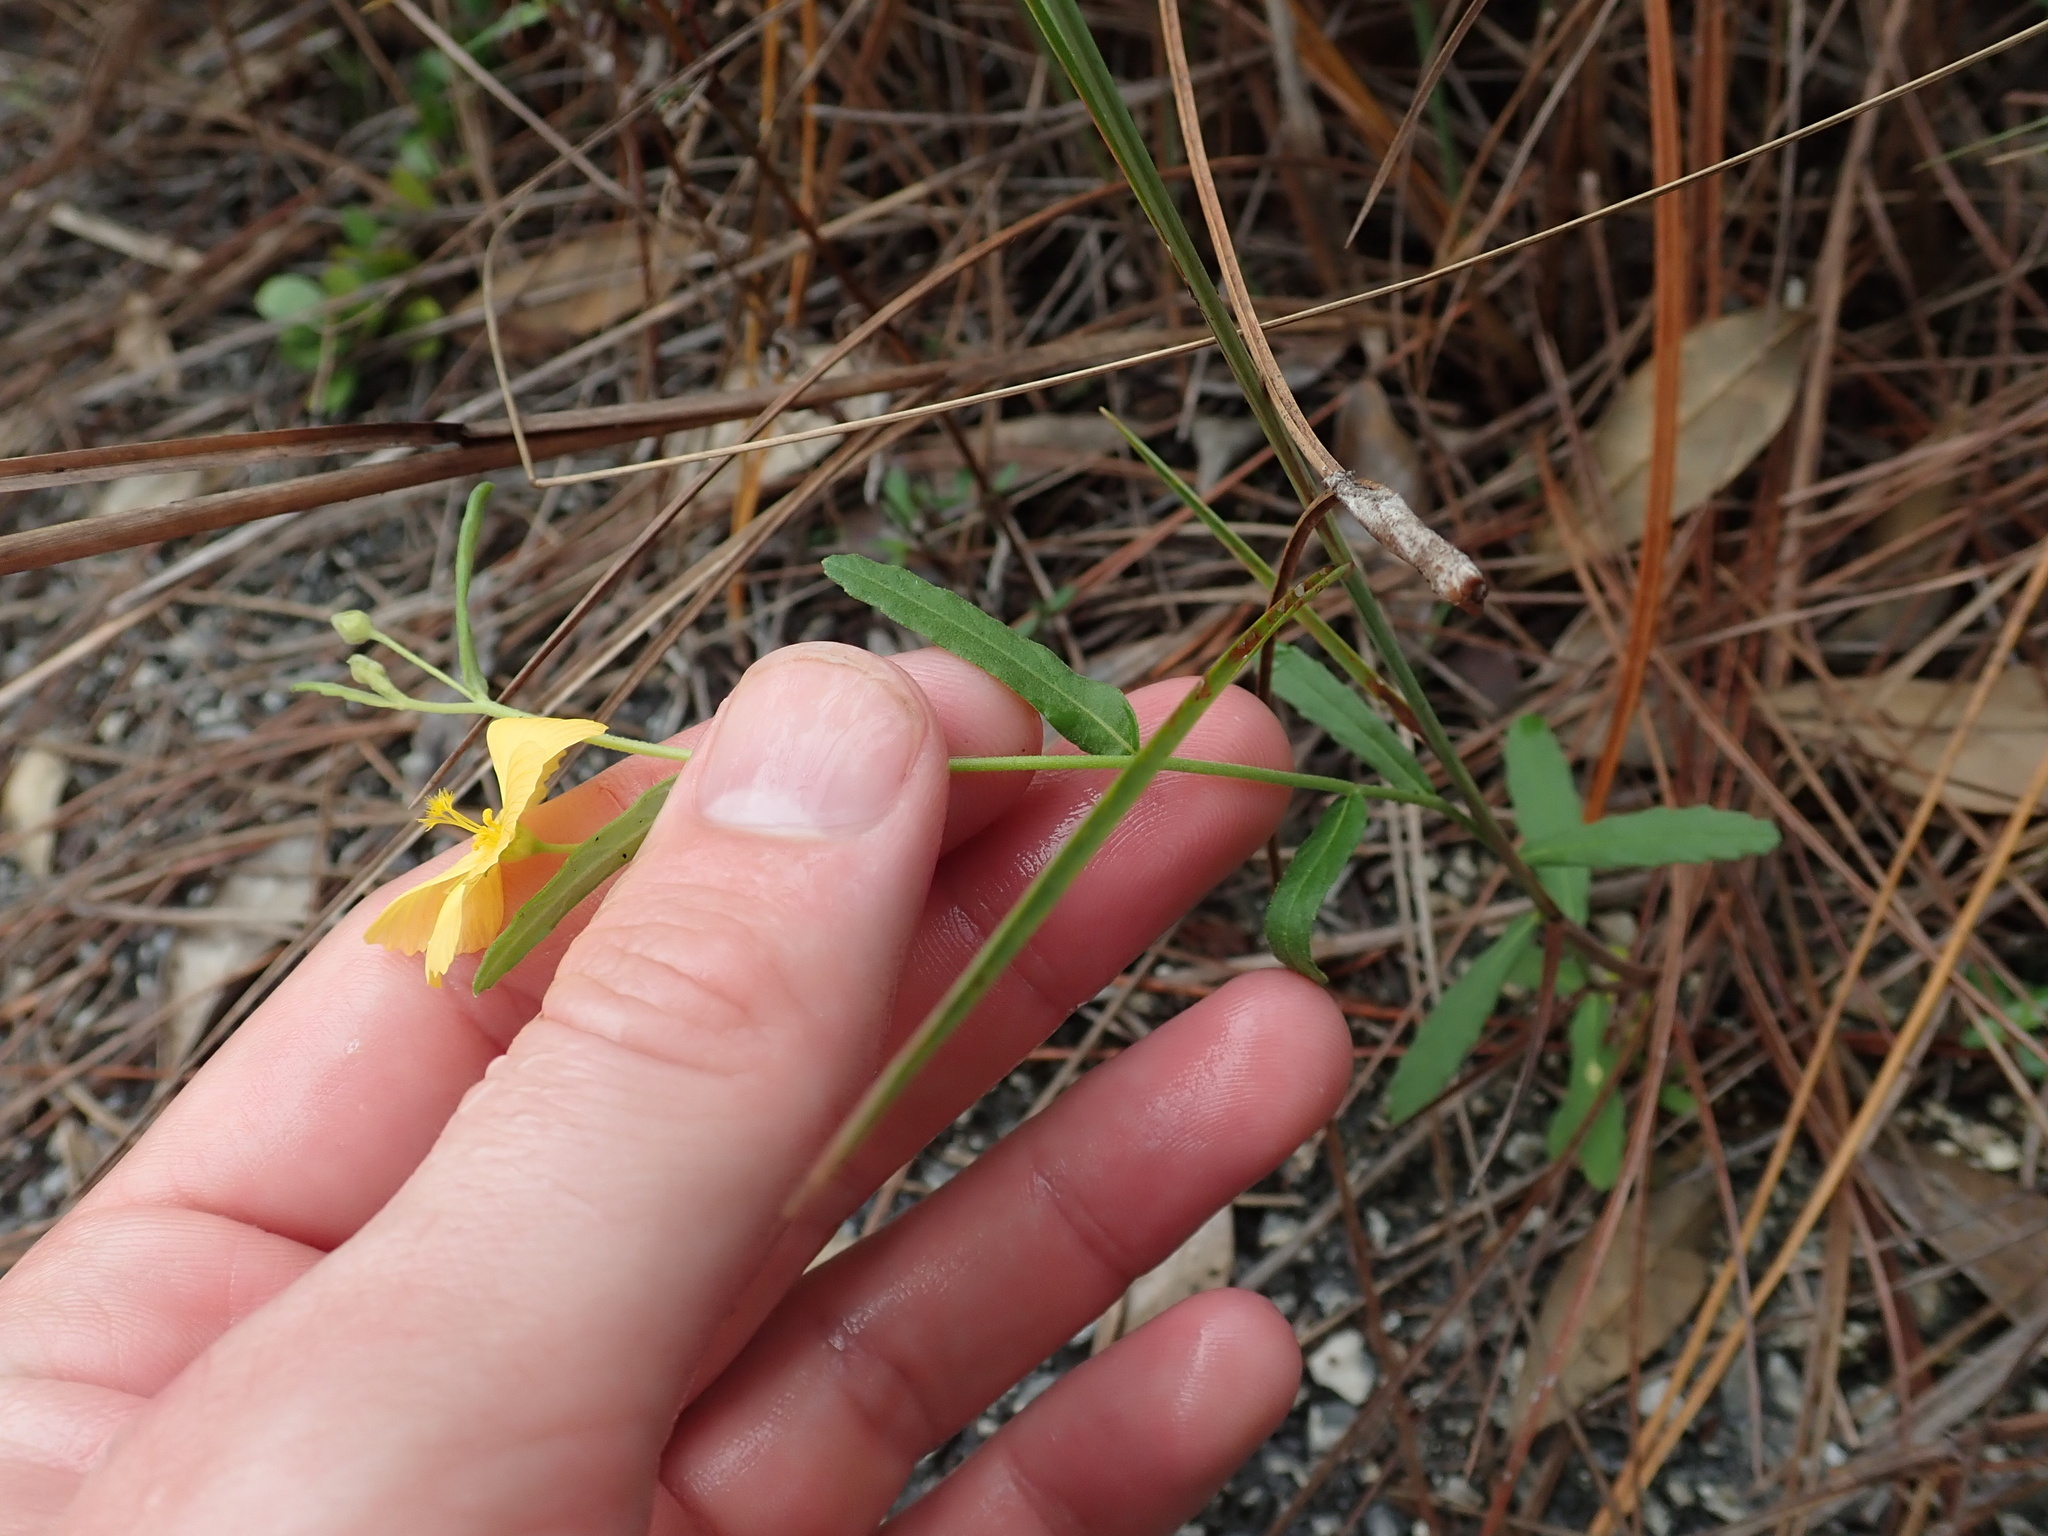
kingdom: Plantae
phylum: Tracheophyta
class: Magnoliopsida
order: Malpighiales
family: Turneraceae
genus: Piriqueta
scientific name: Piriqueta cistoides
